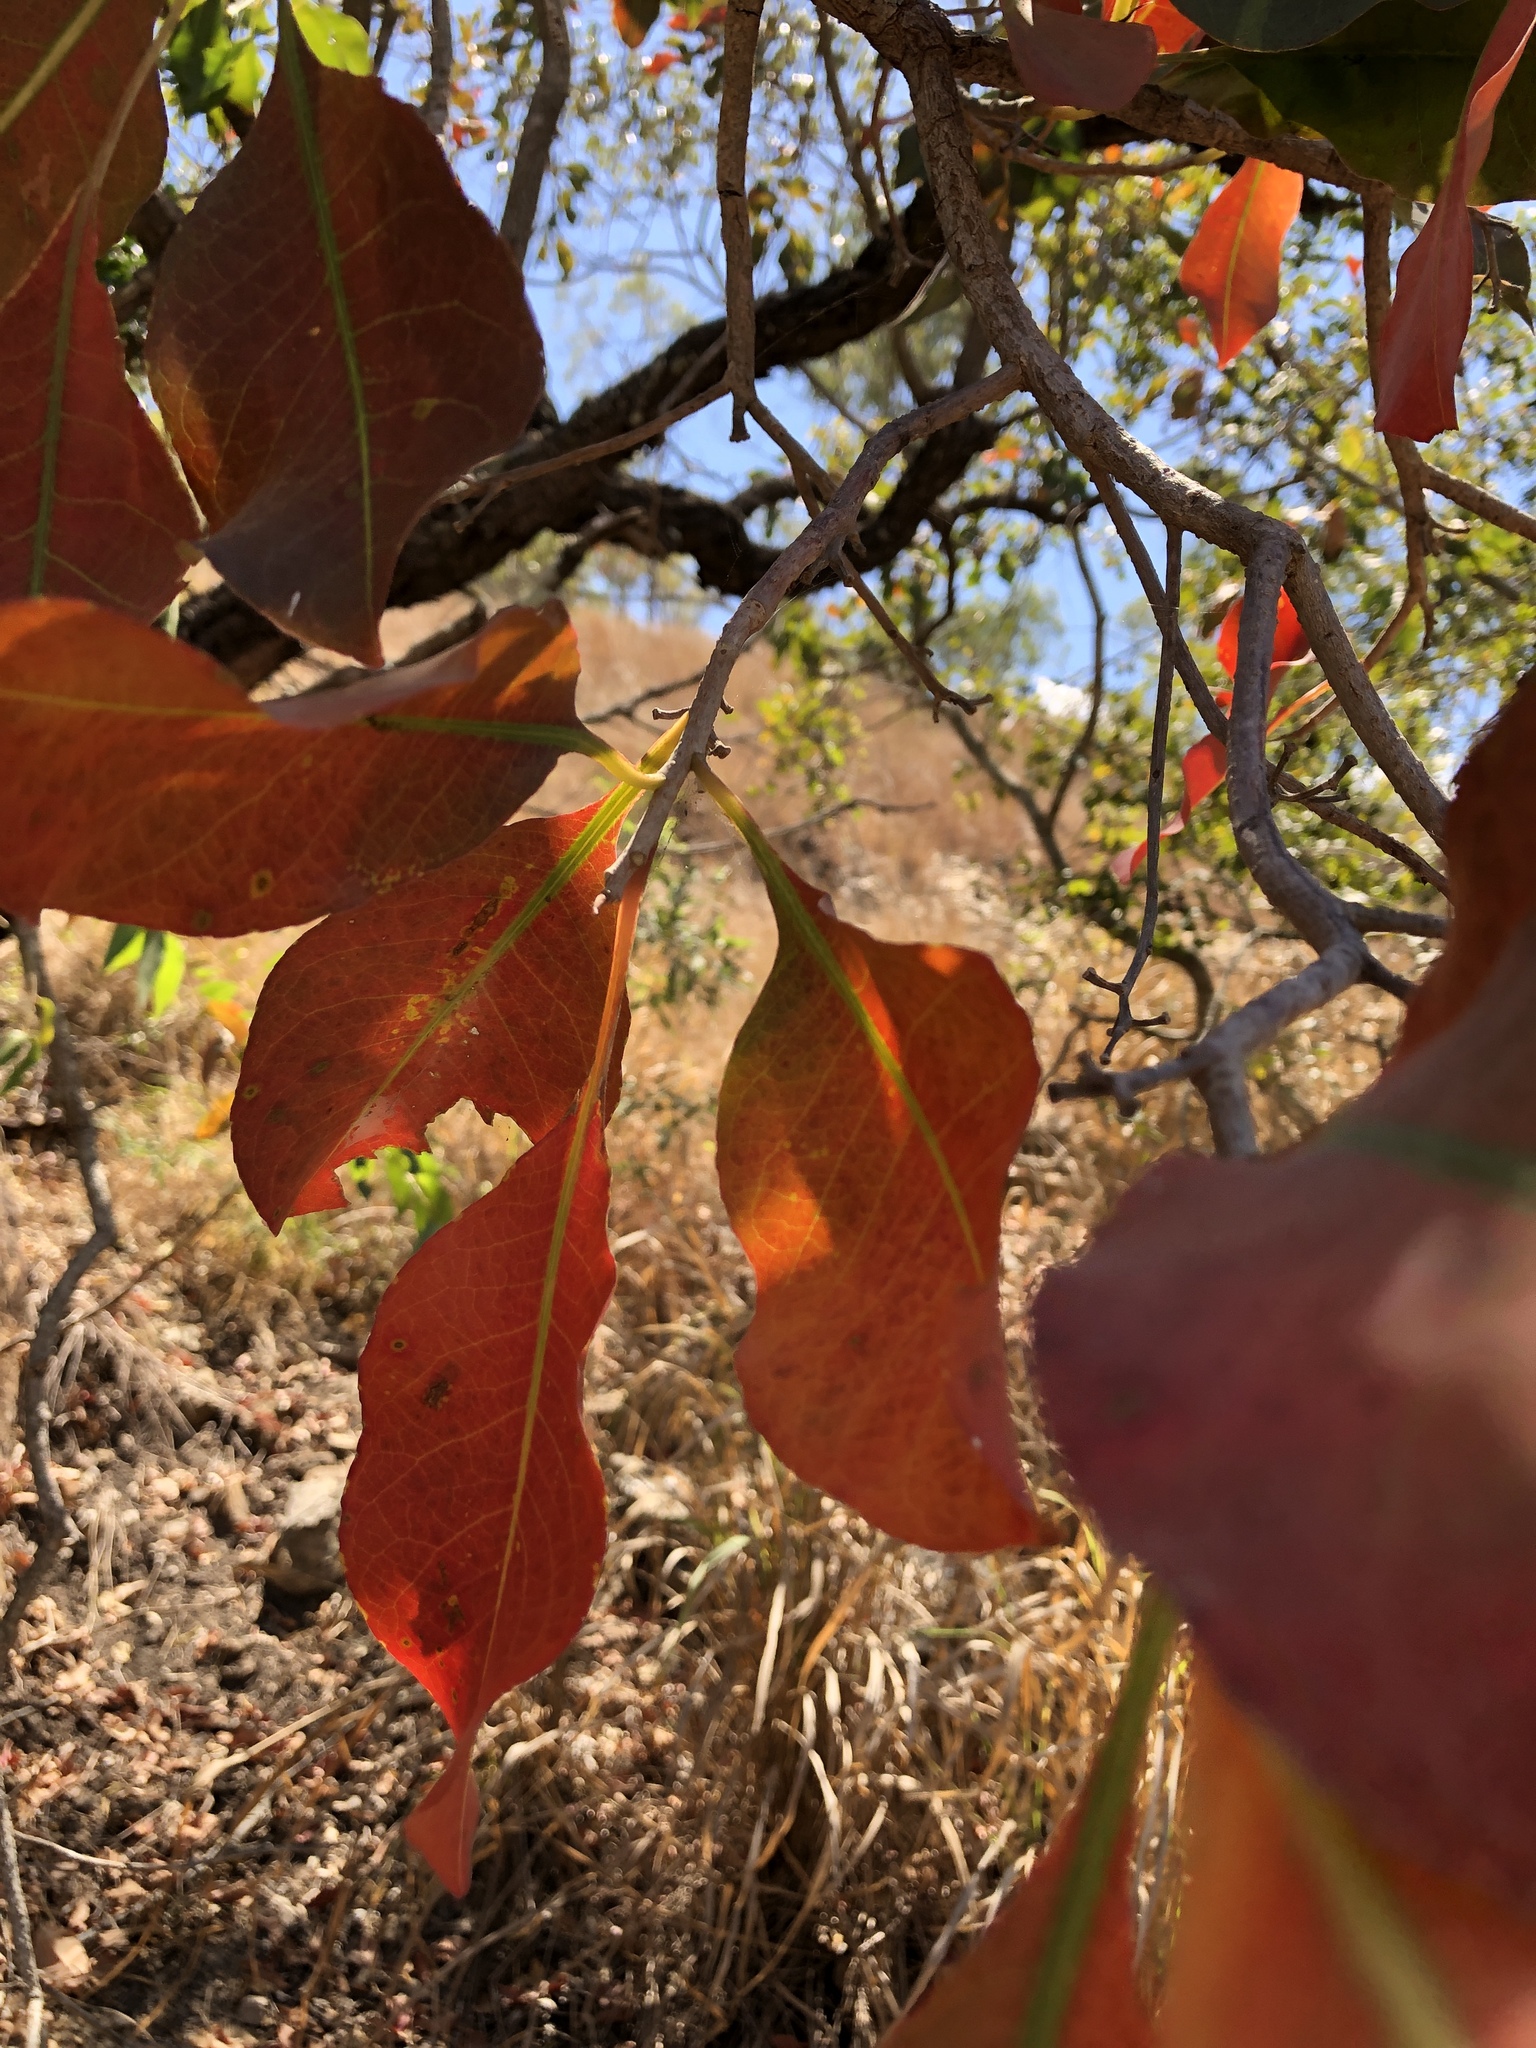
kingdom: Plantae
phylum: Tracheophyta
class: Magnoliopsida
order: Ericales
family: Lecythidaceae
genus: Planchonia
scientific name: Planchonia careya
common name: Cockatoo-apple
